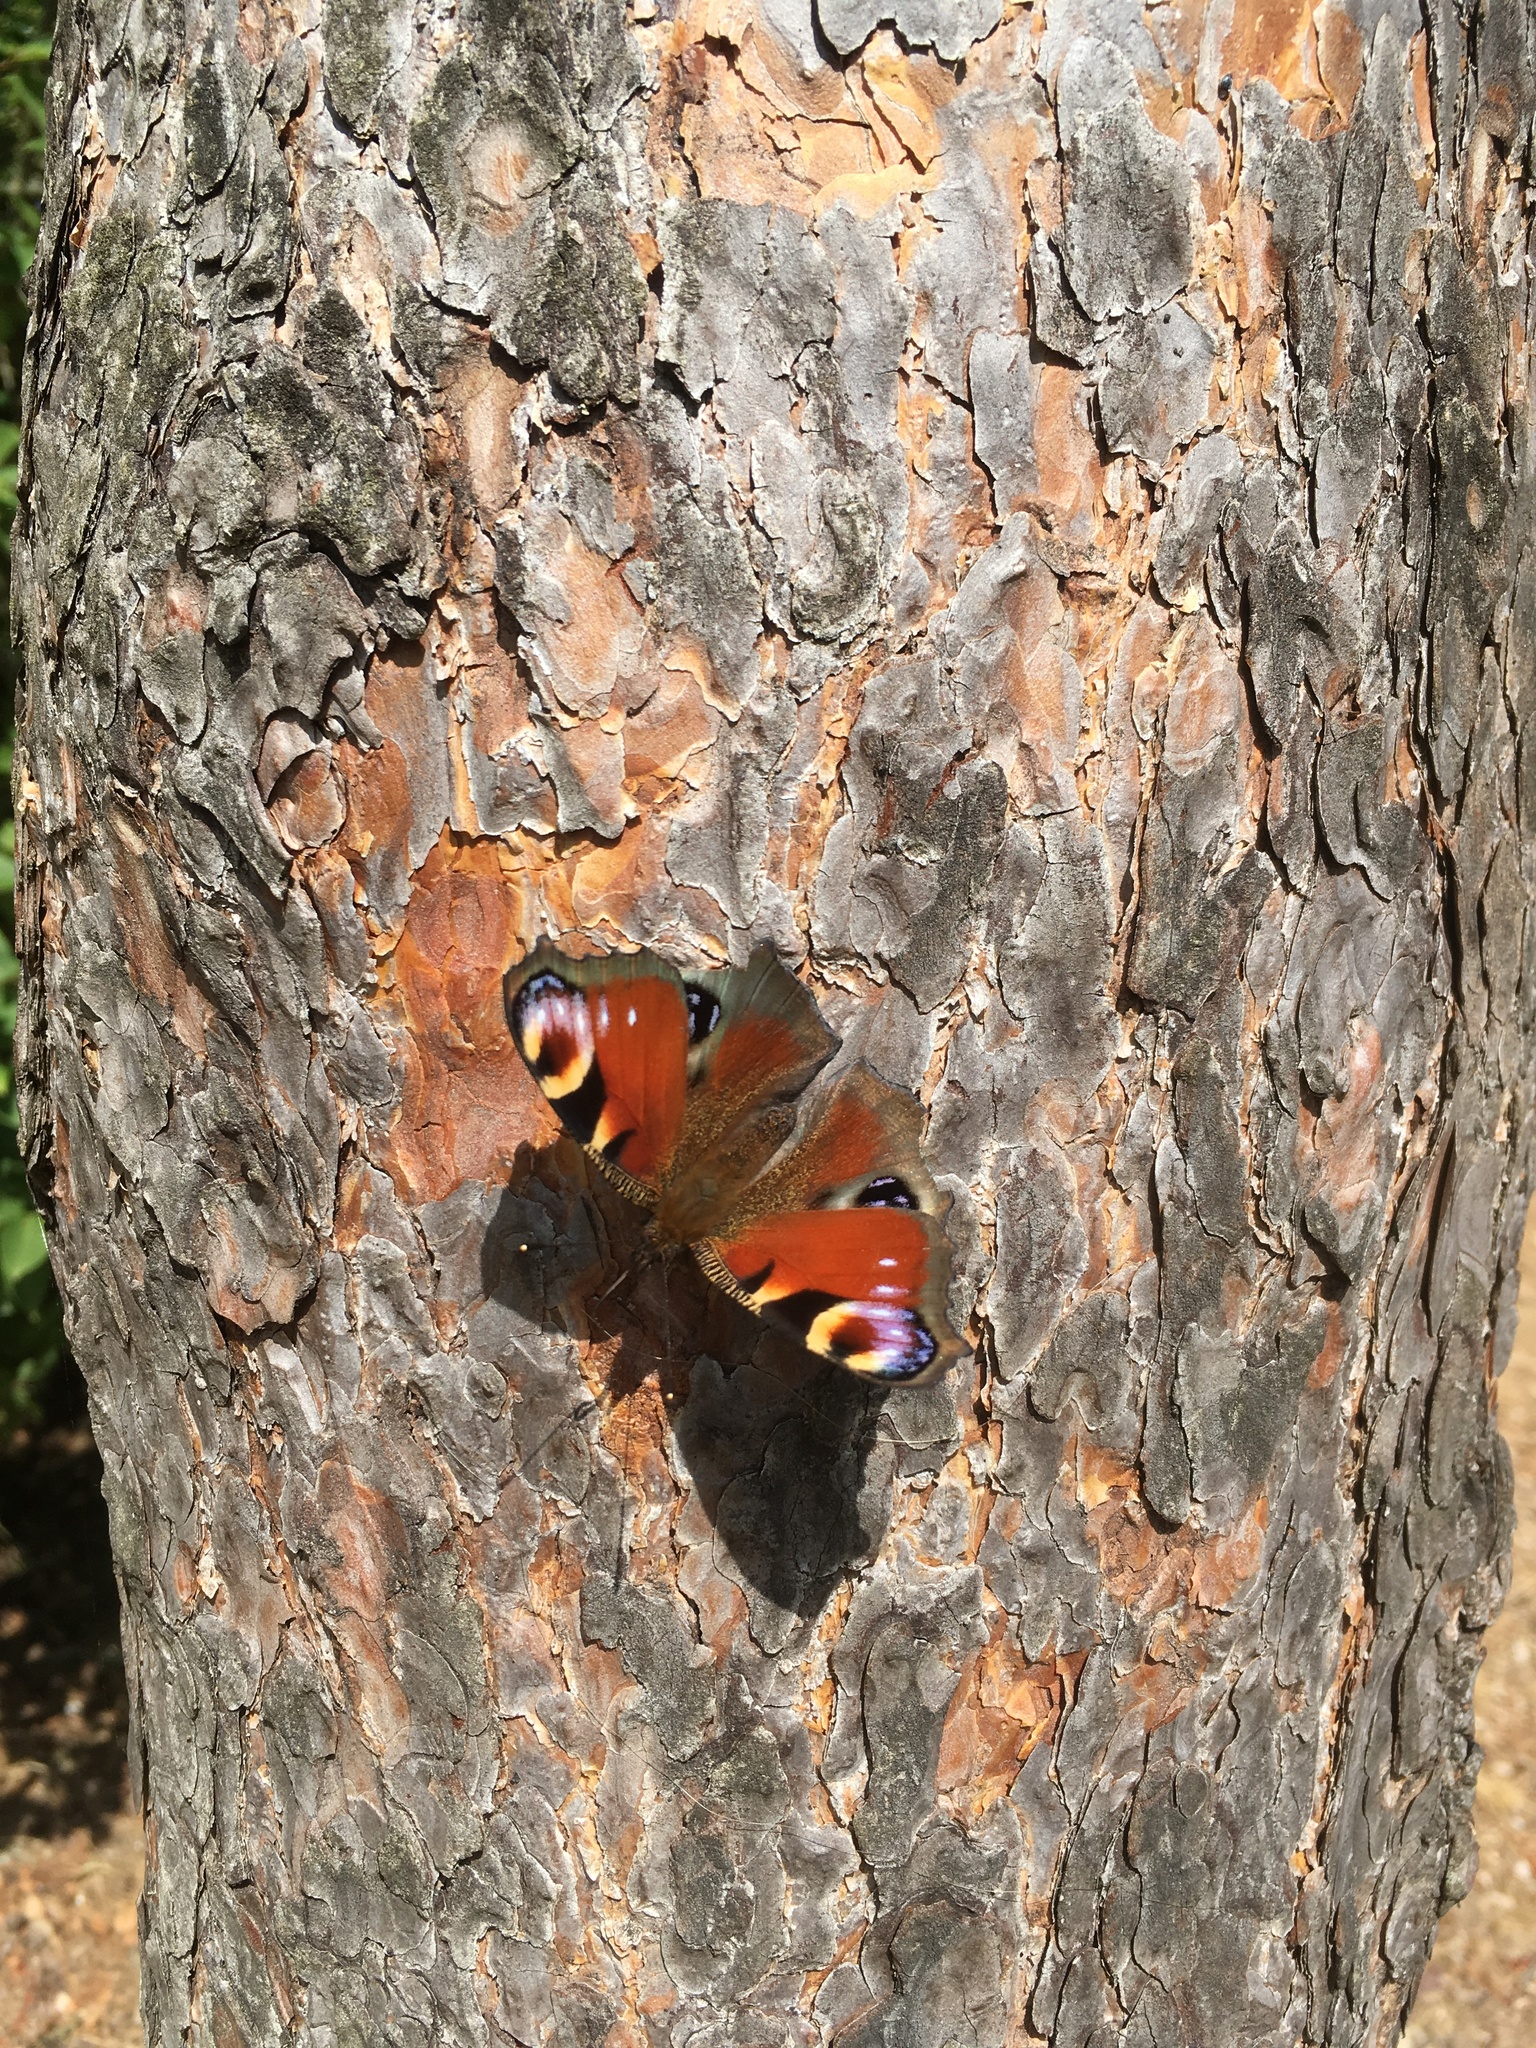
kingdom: Animalia
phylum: Arthropoda
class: Insecta
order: Lepidoptera
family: Nymphalidae
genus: Aglais
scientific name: Aglais io
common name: Peacock
